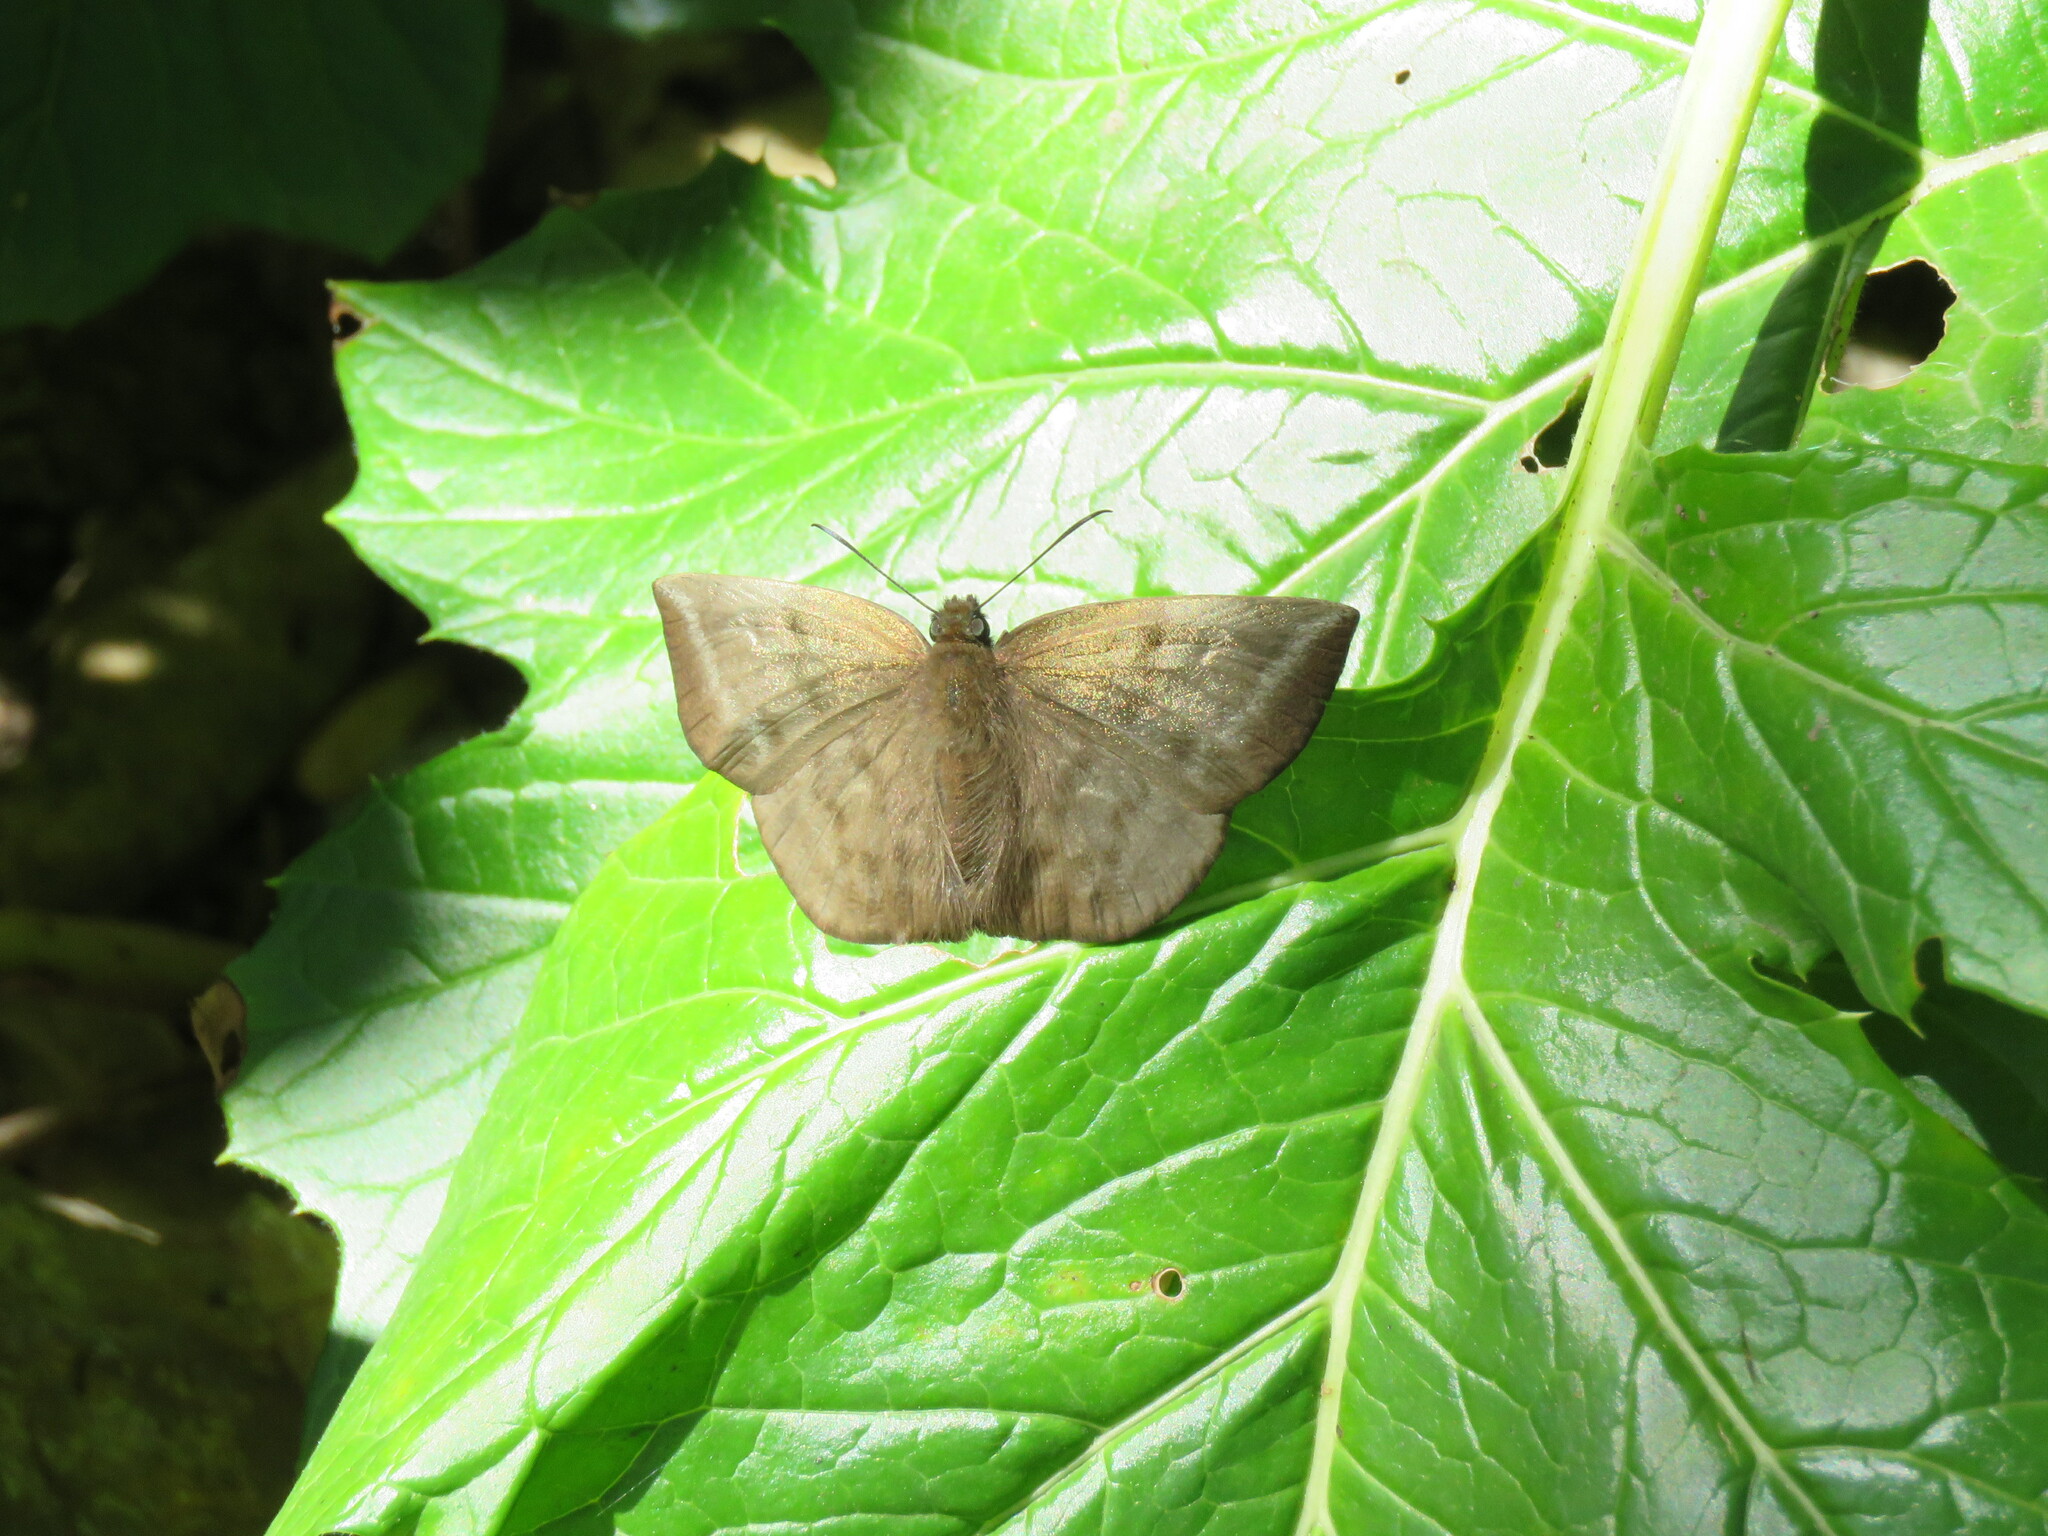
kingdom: Animalia
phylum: Arthropoda
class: Insecta
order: Lepidoptera
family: Hesperiidae
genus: Achlyodes
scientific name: Achlyodes pallida
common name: Pale sicklewing
